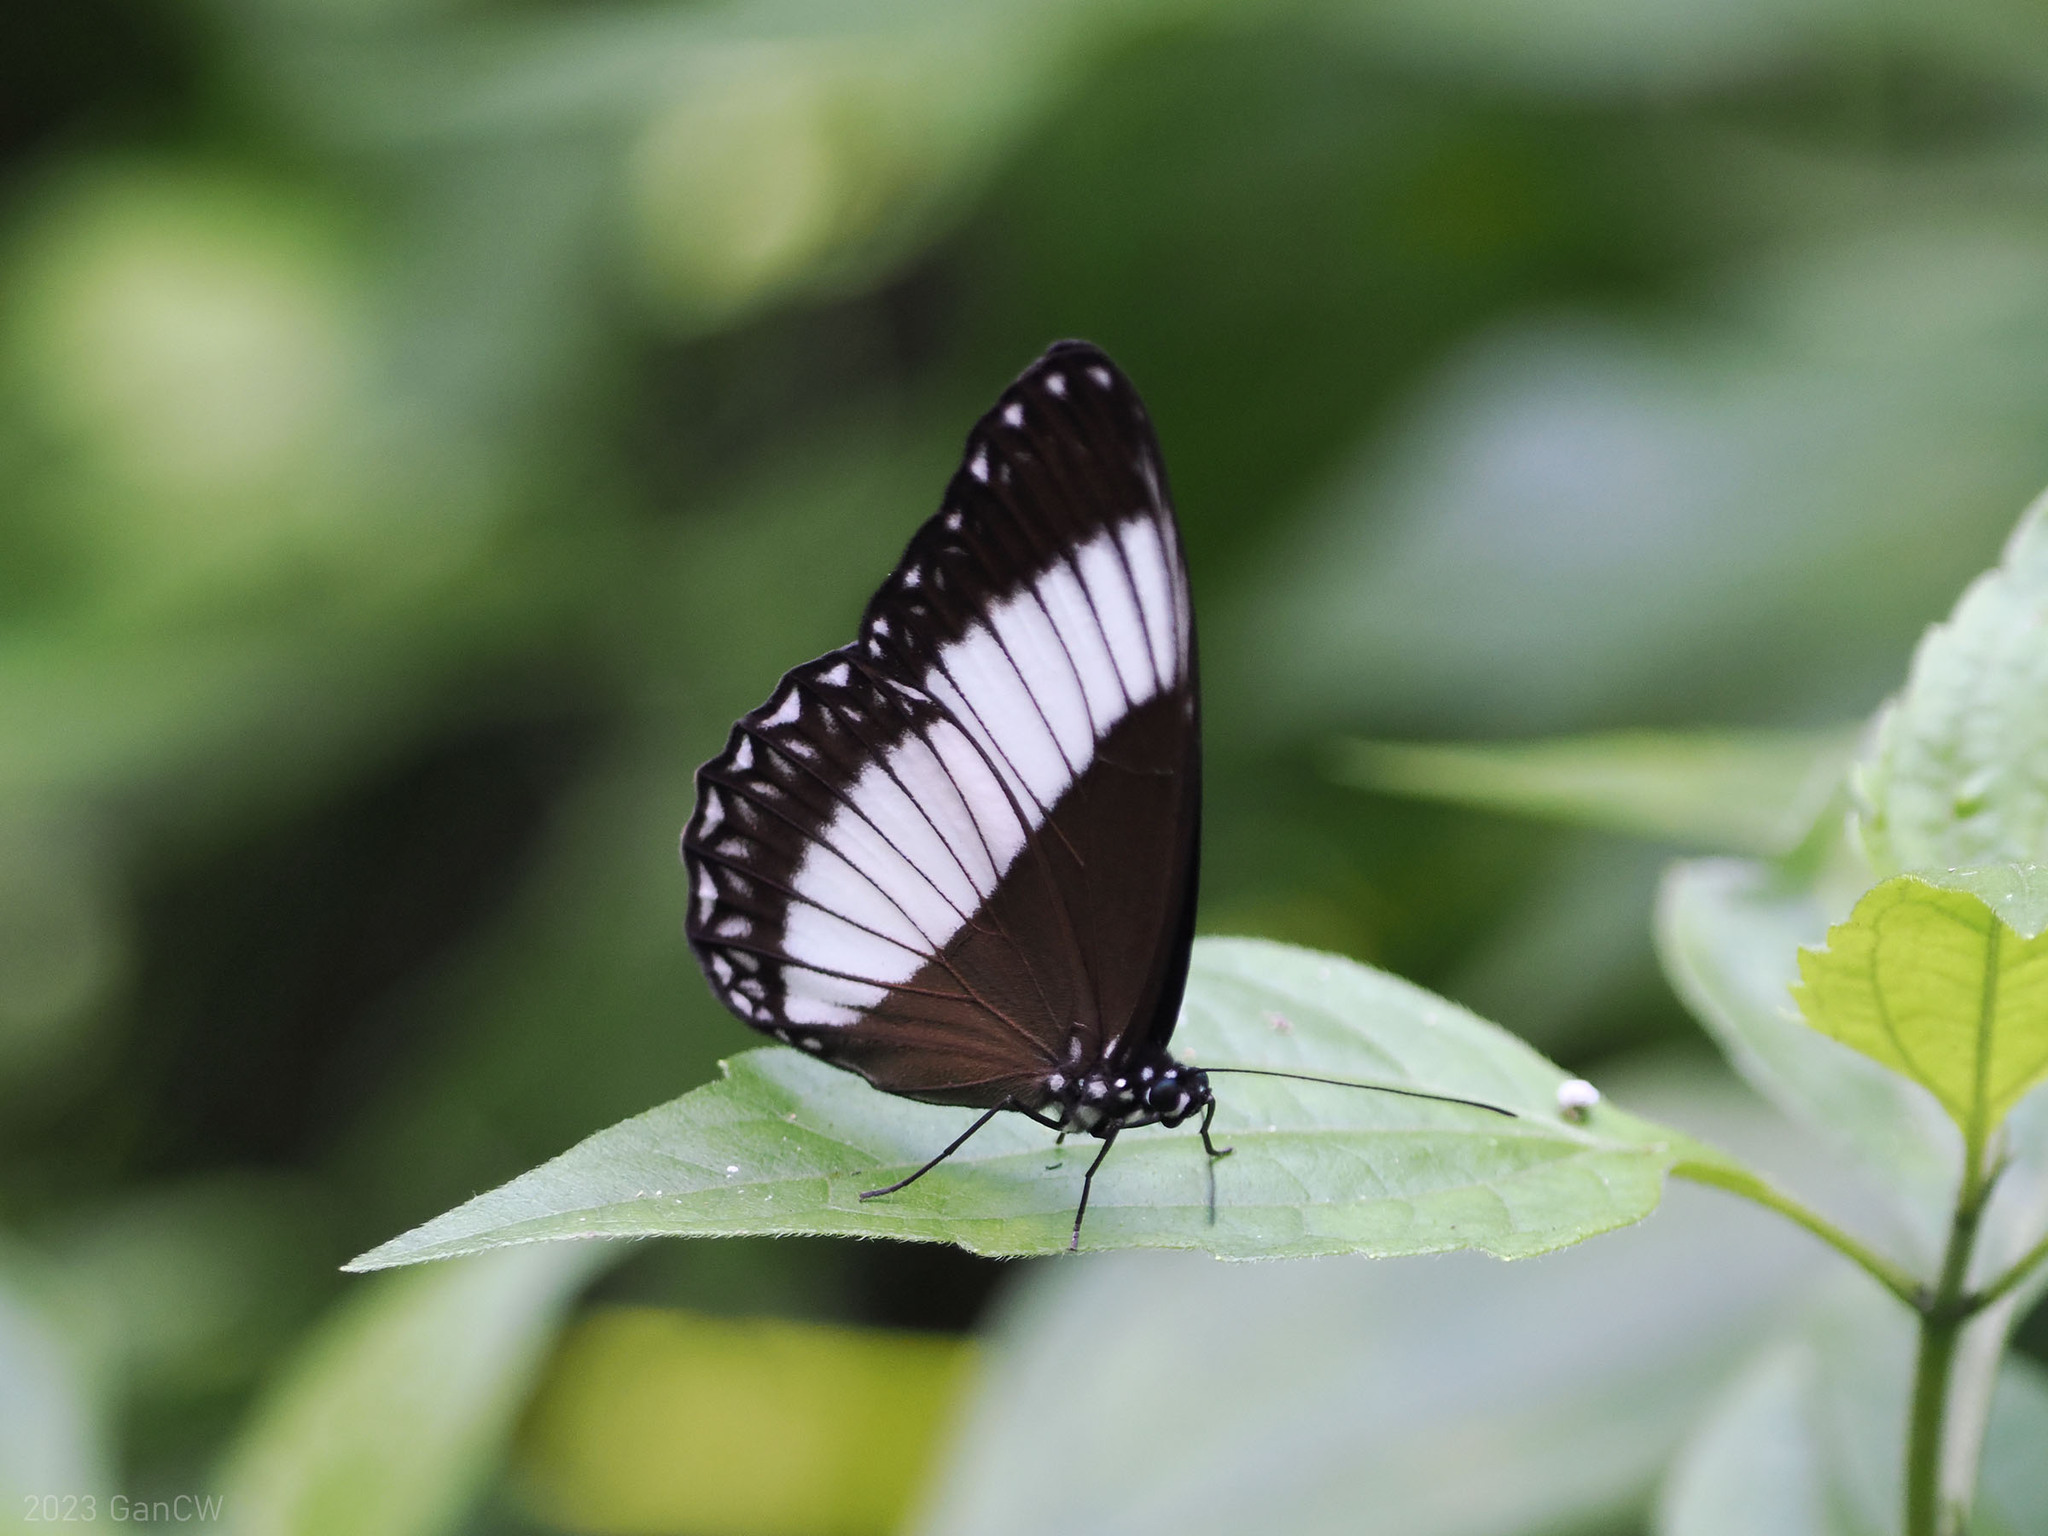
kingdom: Animalia
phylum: Arthropoda
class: Insecta
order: Lepidoptera
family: Nymphalidae
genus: Zethera
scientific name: Zethera pimplea
